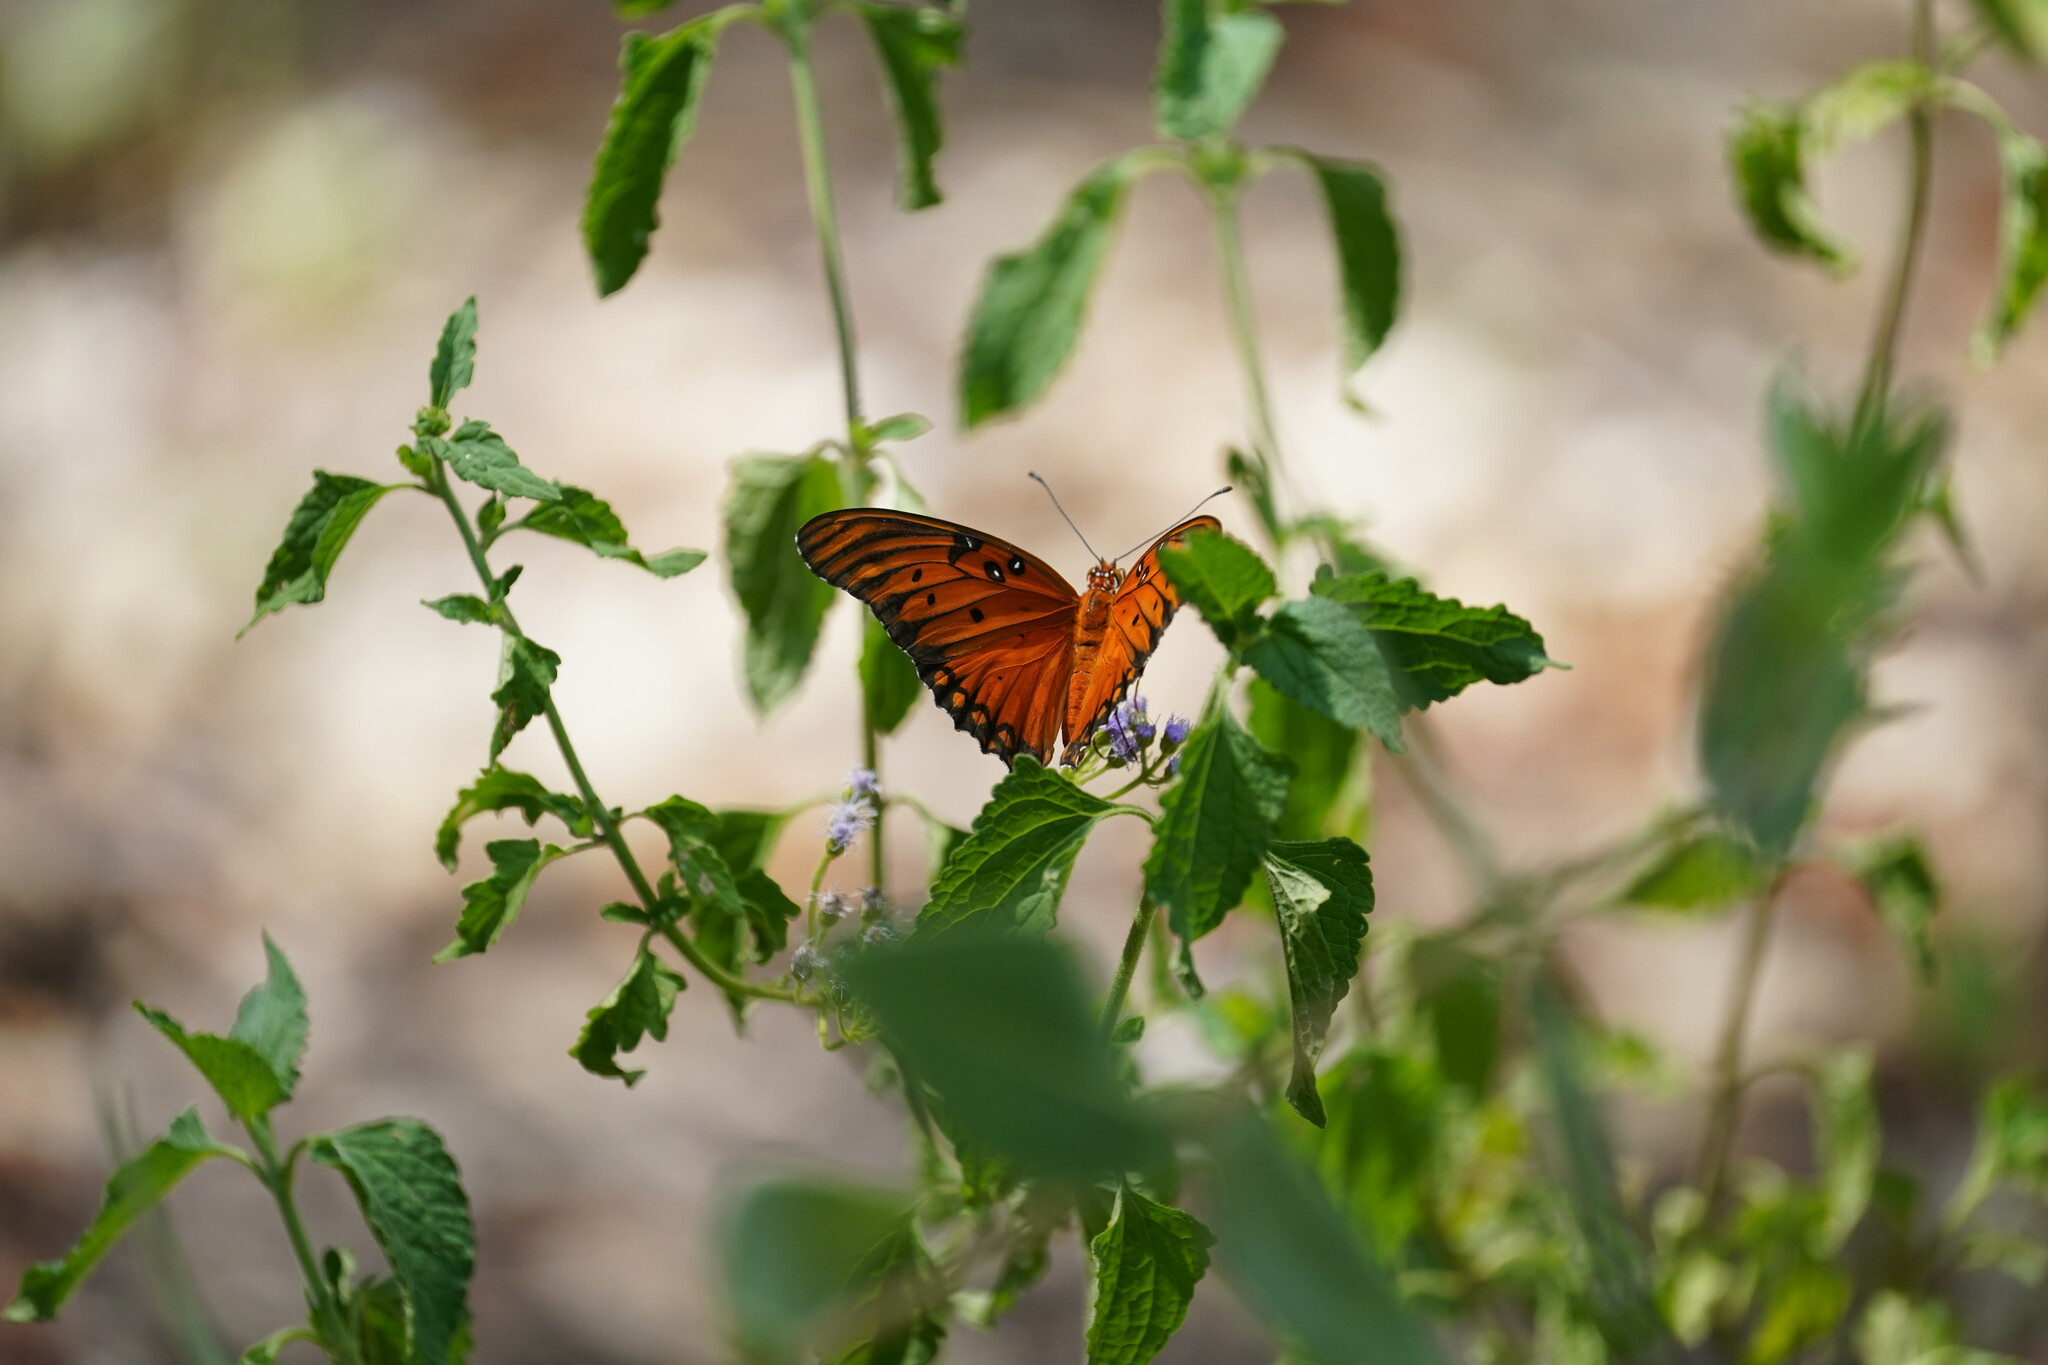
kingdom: Animalia
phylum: Arthropoda
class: Insecta
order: Lepidoptera
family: Nymphalidae
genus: Dione
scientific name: Dione vanillae
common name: Gulf fritillary
